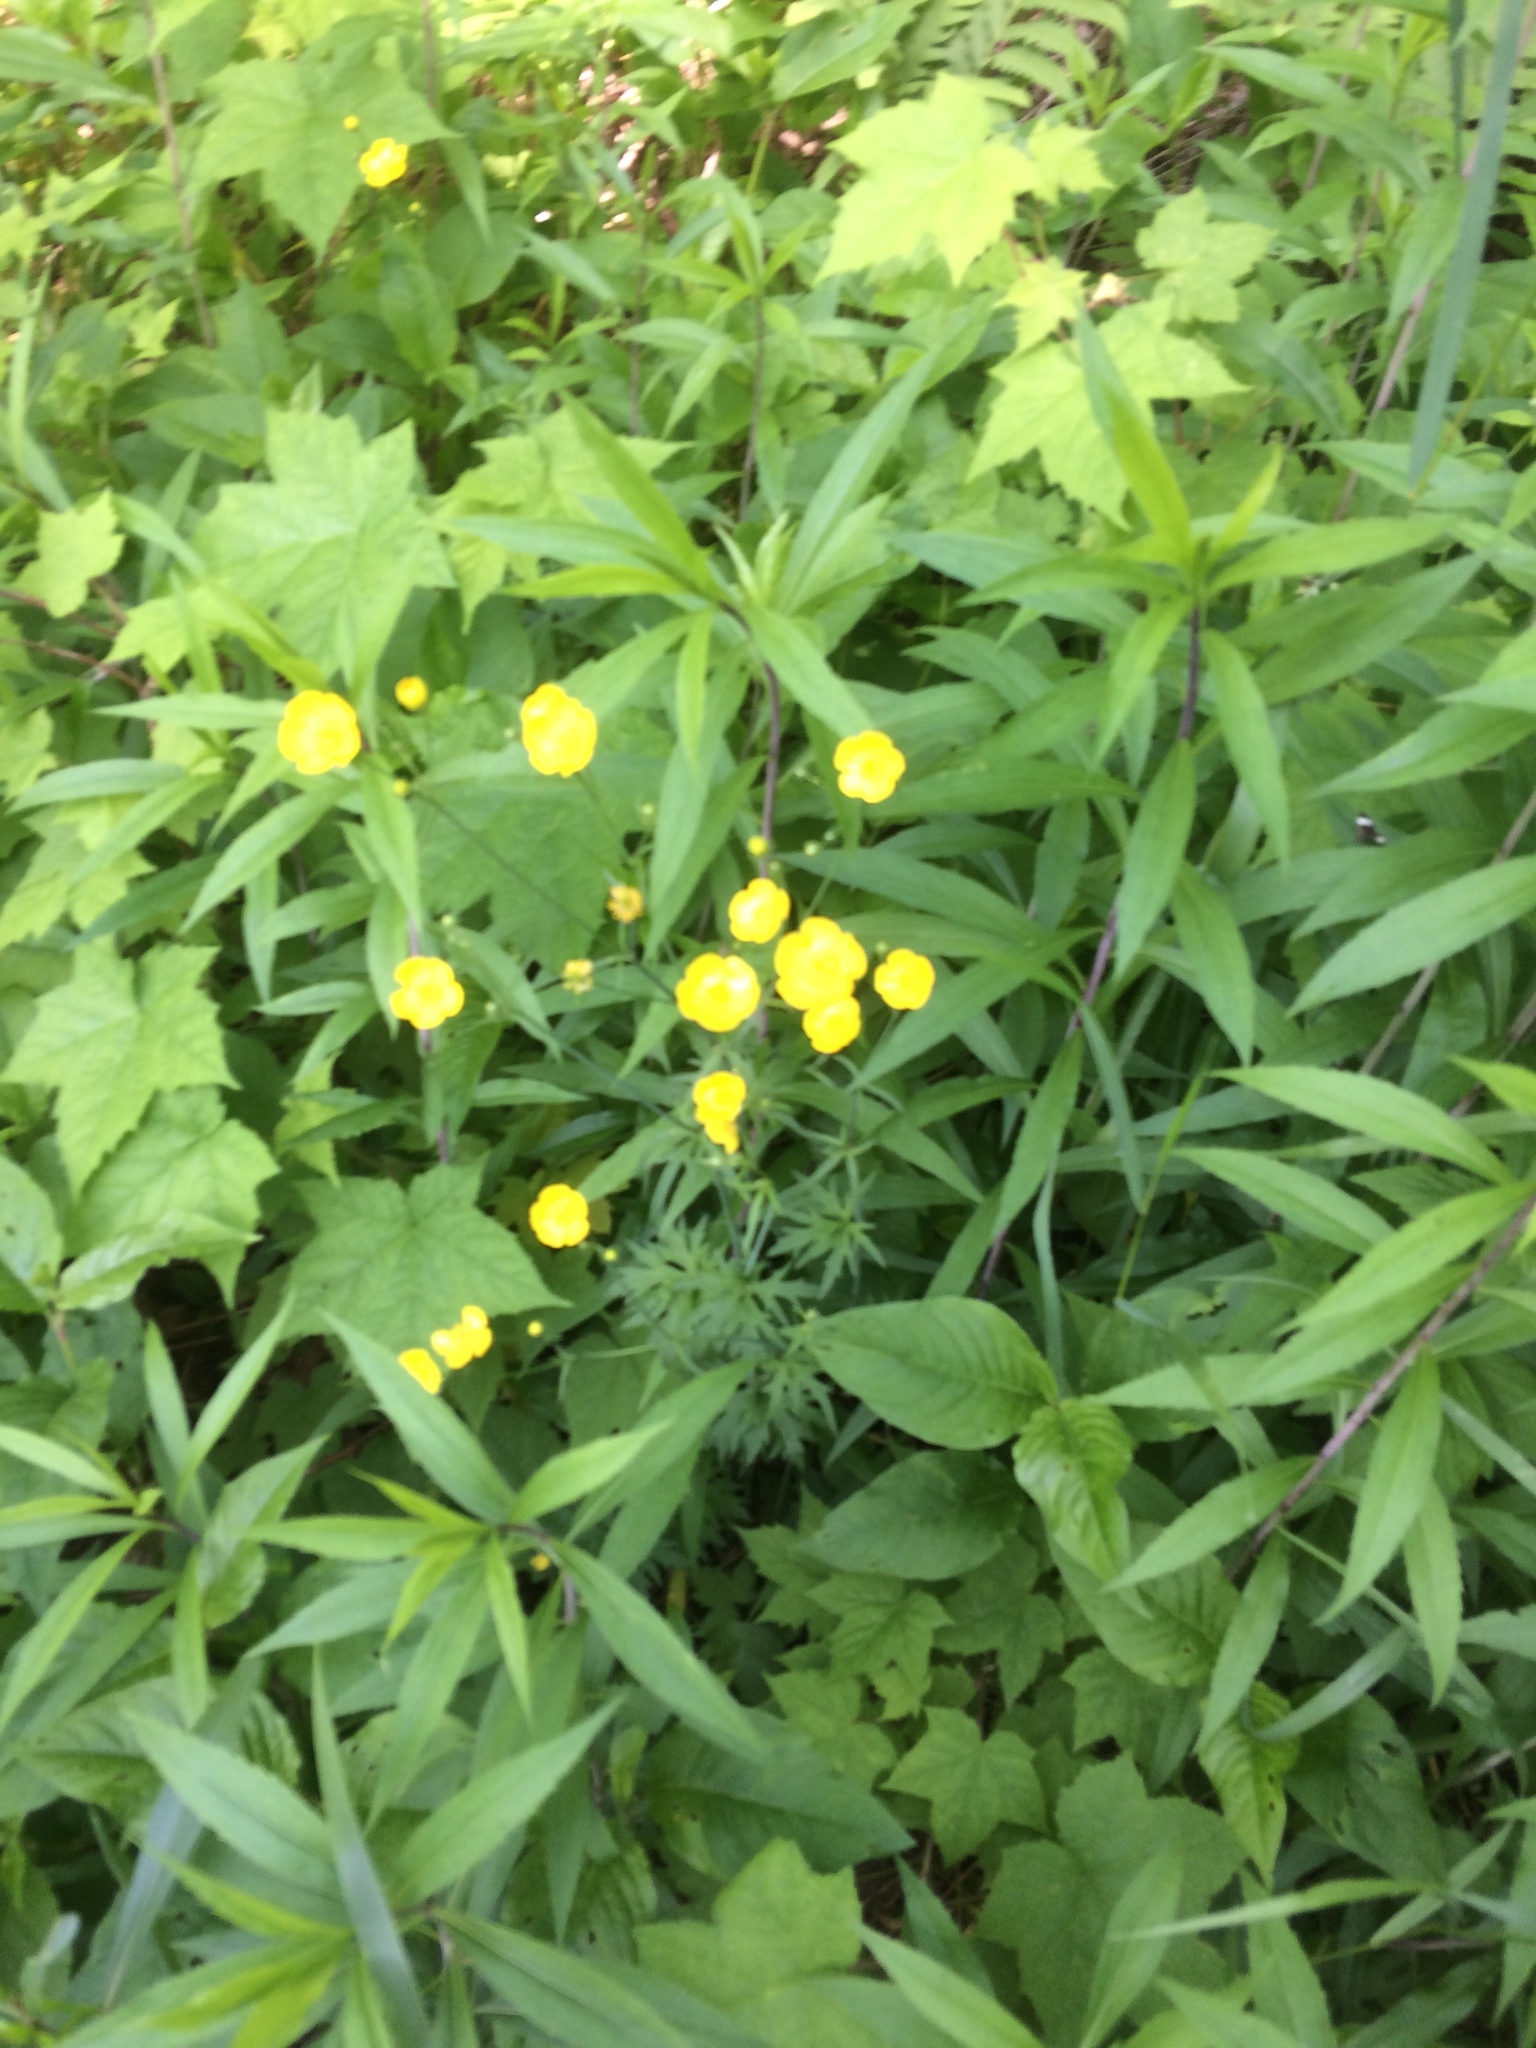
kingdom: Plantae
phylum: Tracheophyta
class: Magnoliopsida
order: Ranunculales
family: Ranunculaceae
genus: Ranunculus
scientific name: Ranunculus acris
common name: Meadow buttercup
